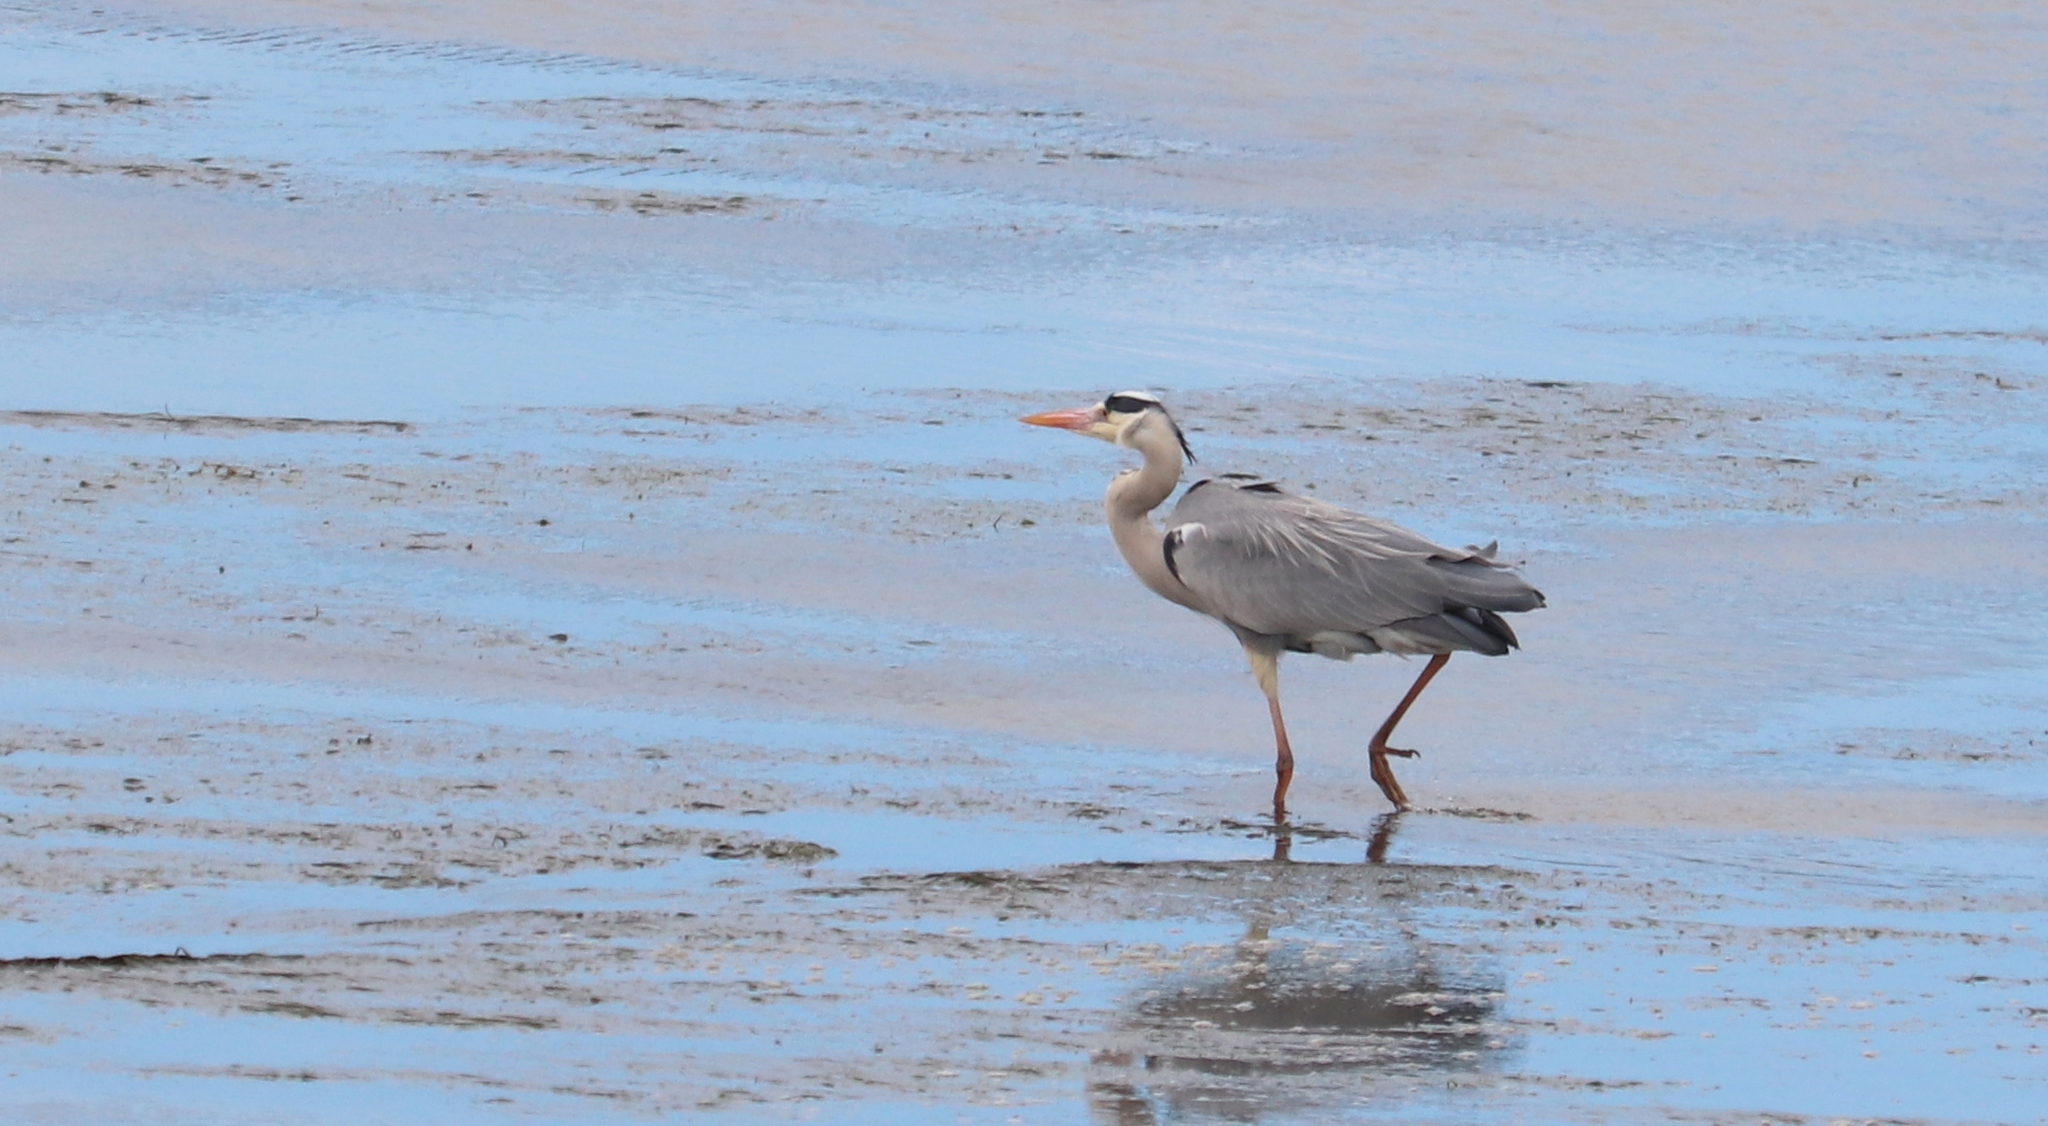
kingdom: Animalia
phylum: Chordata
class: Aves
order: Pelecaniformes
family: Ardeidae
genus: Ardea
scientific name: Ardea cinerea
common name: Grey heron
